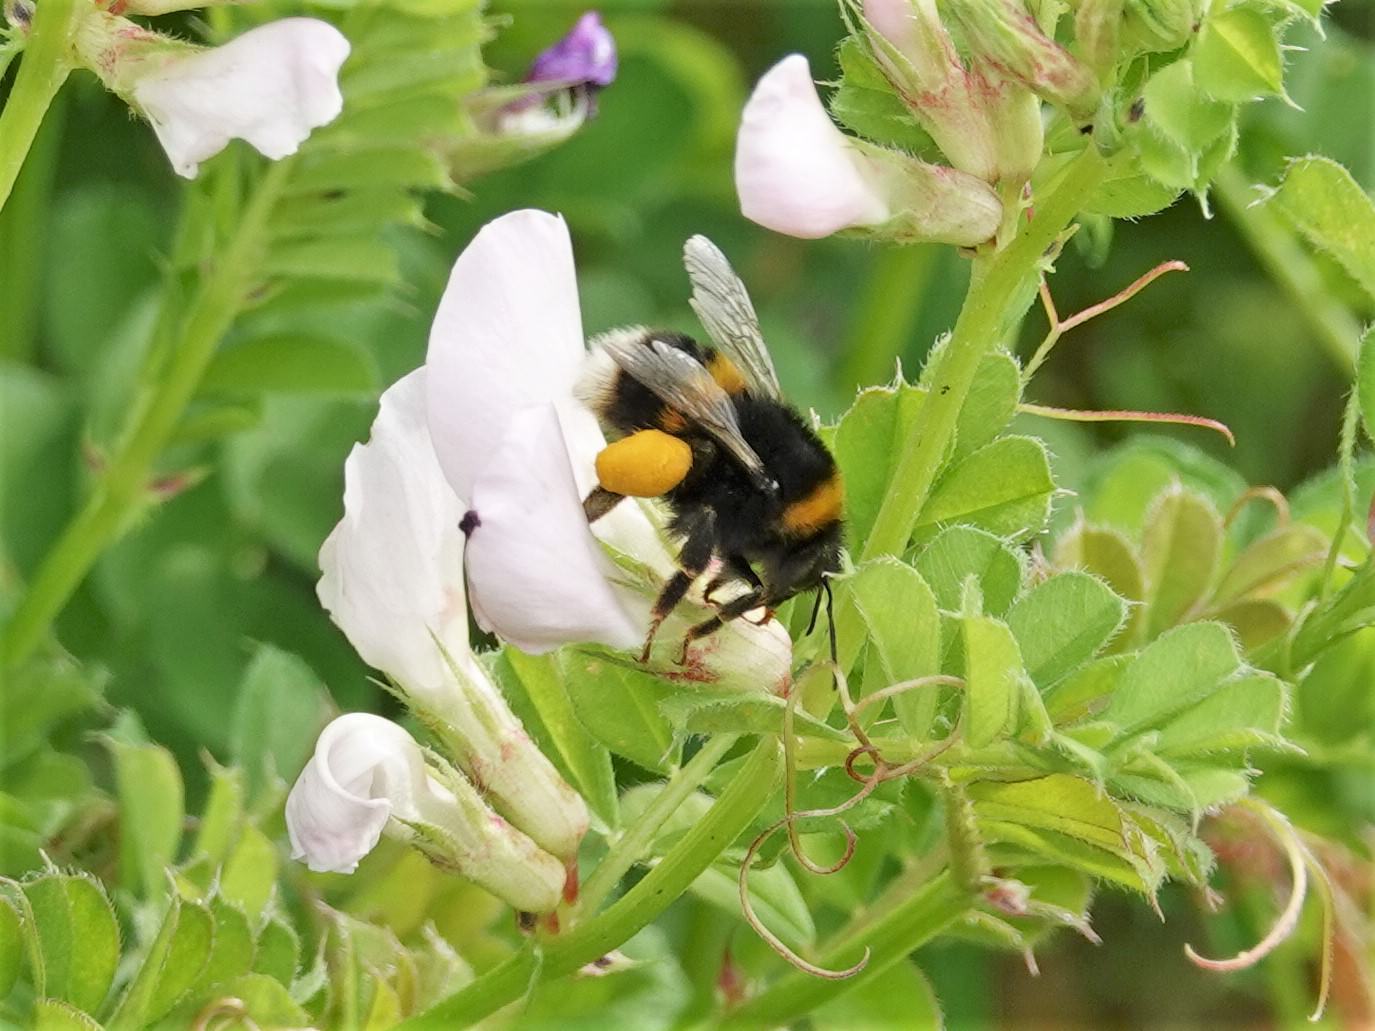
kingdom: Animalia
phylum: Arthropoda
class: Insecta
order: Hymenoptera
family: Apidae
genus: Bombus
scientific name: Bombus terrestris
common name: Buff-tailed bumblebee
